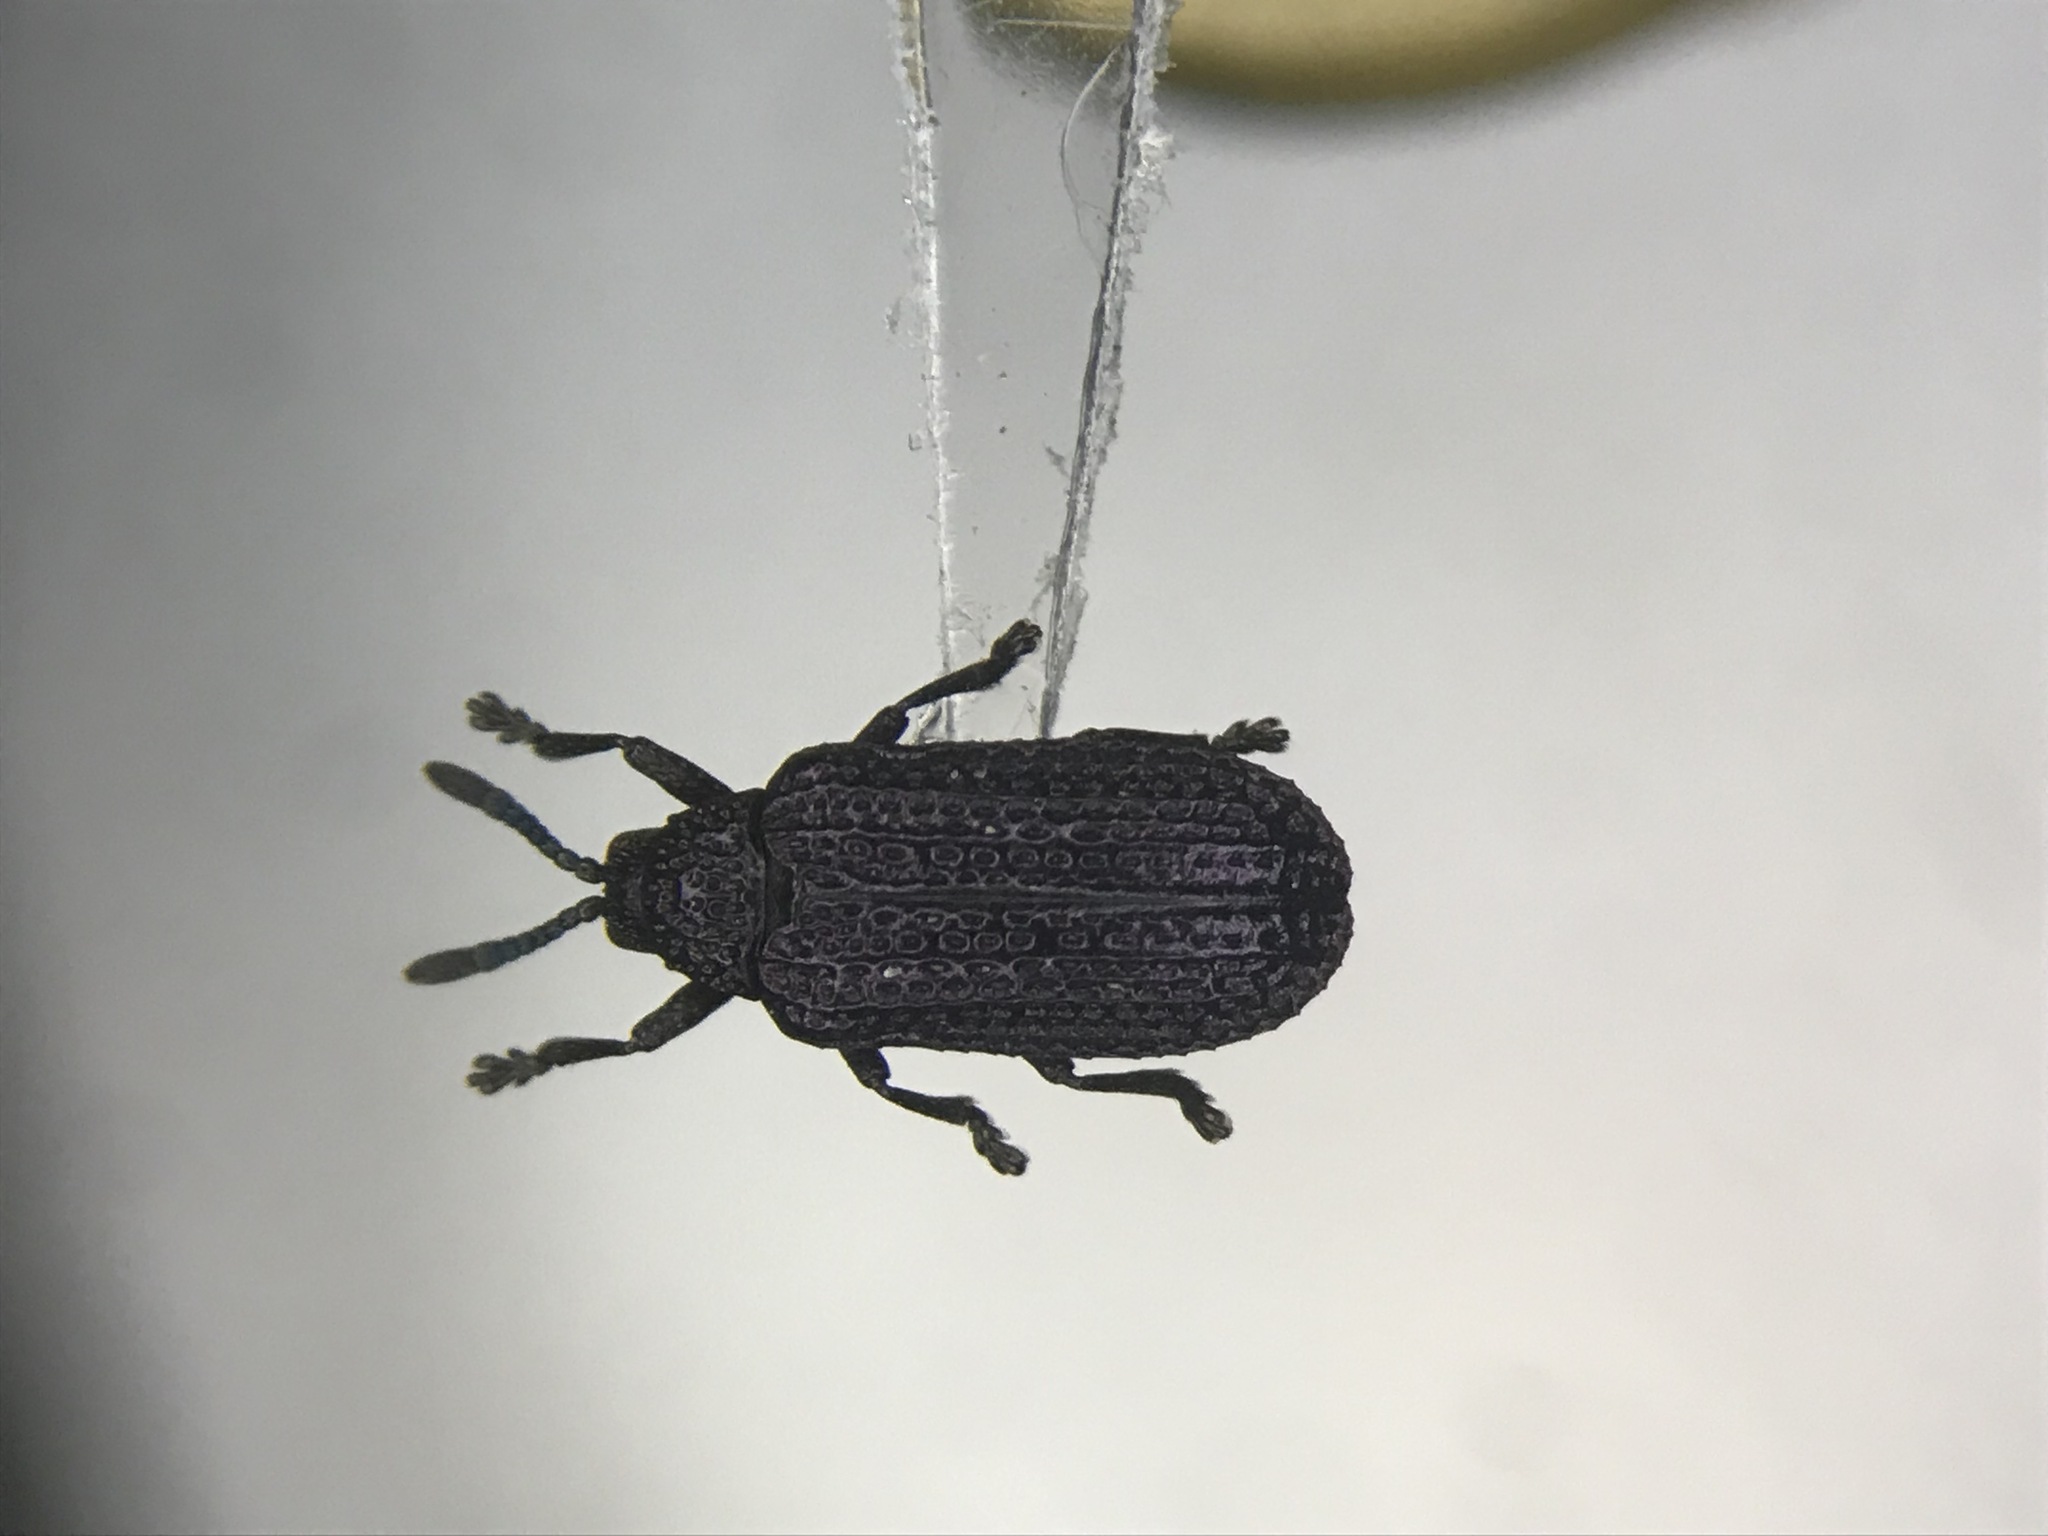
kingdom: Animalia
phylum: Arthropoda
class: Insecta
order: Coleoptera
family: Chrysomelidae
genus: Microrhopala
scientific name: Microrhopala excavata
